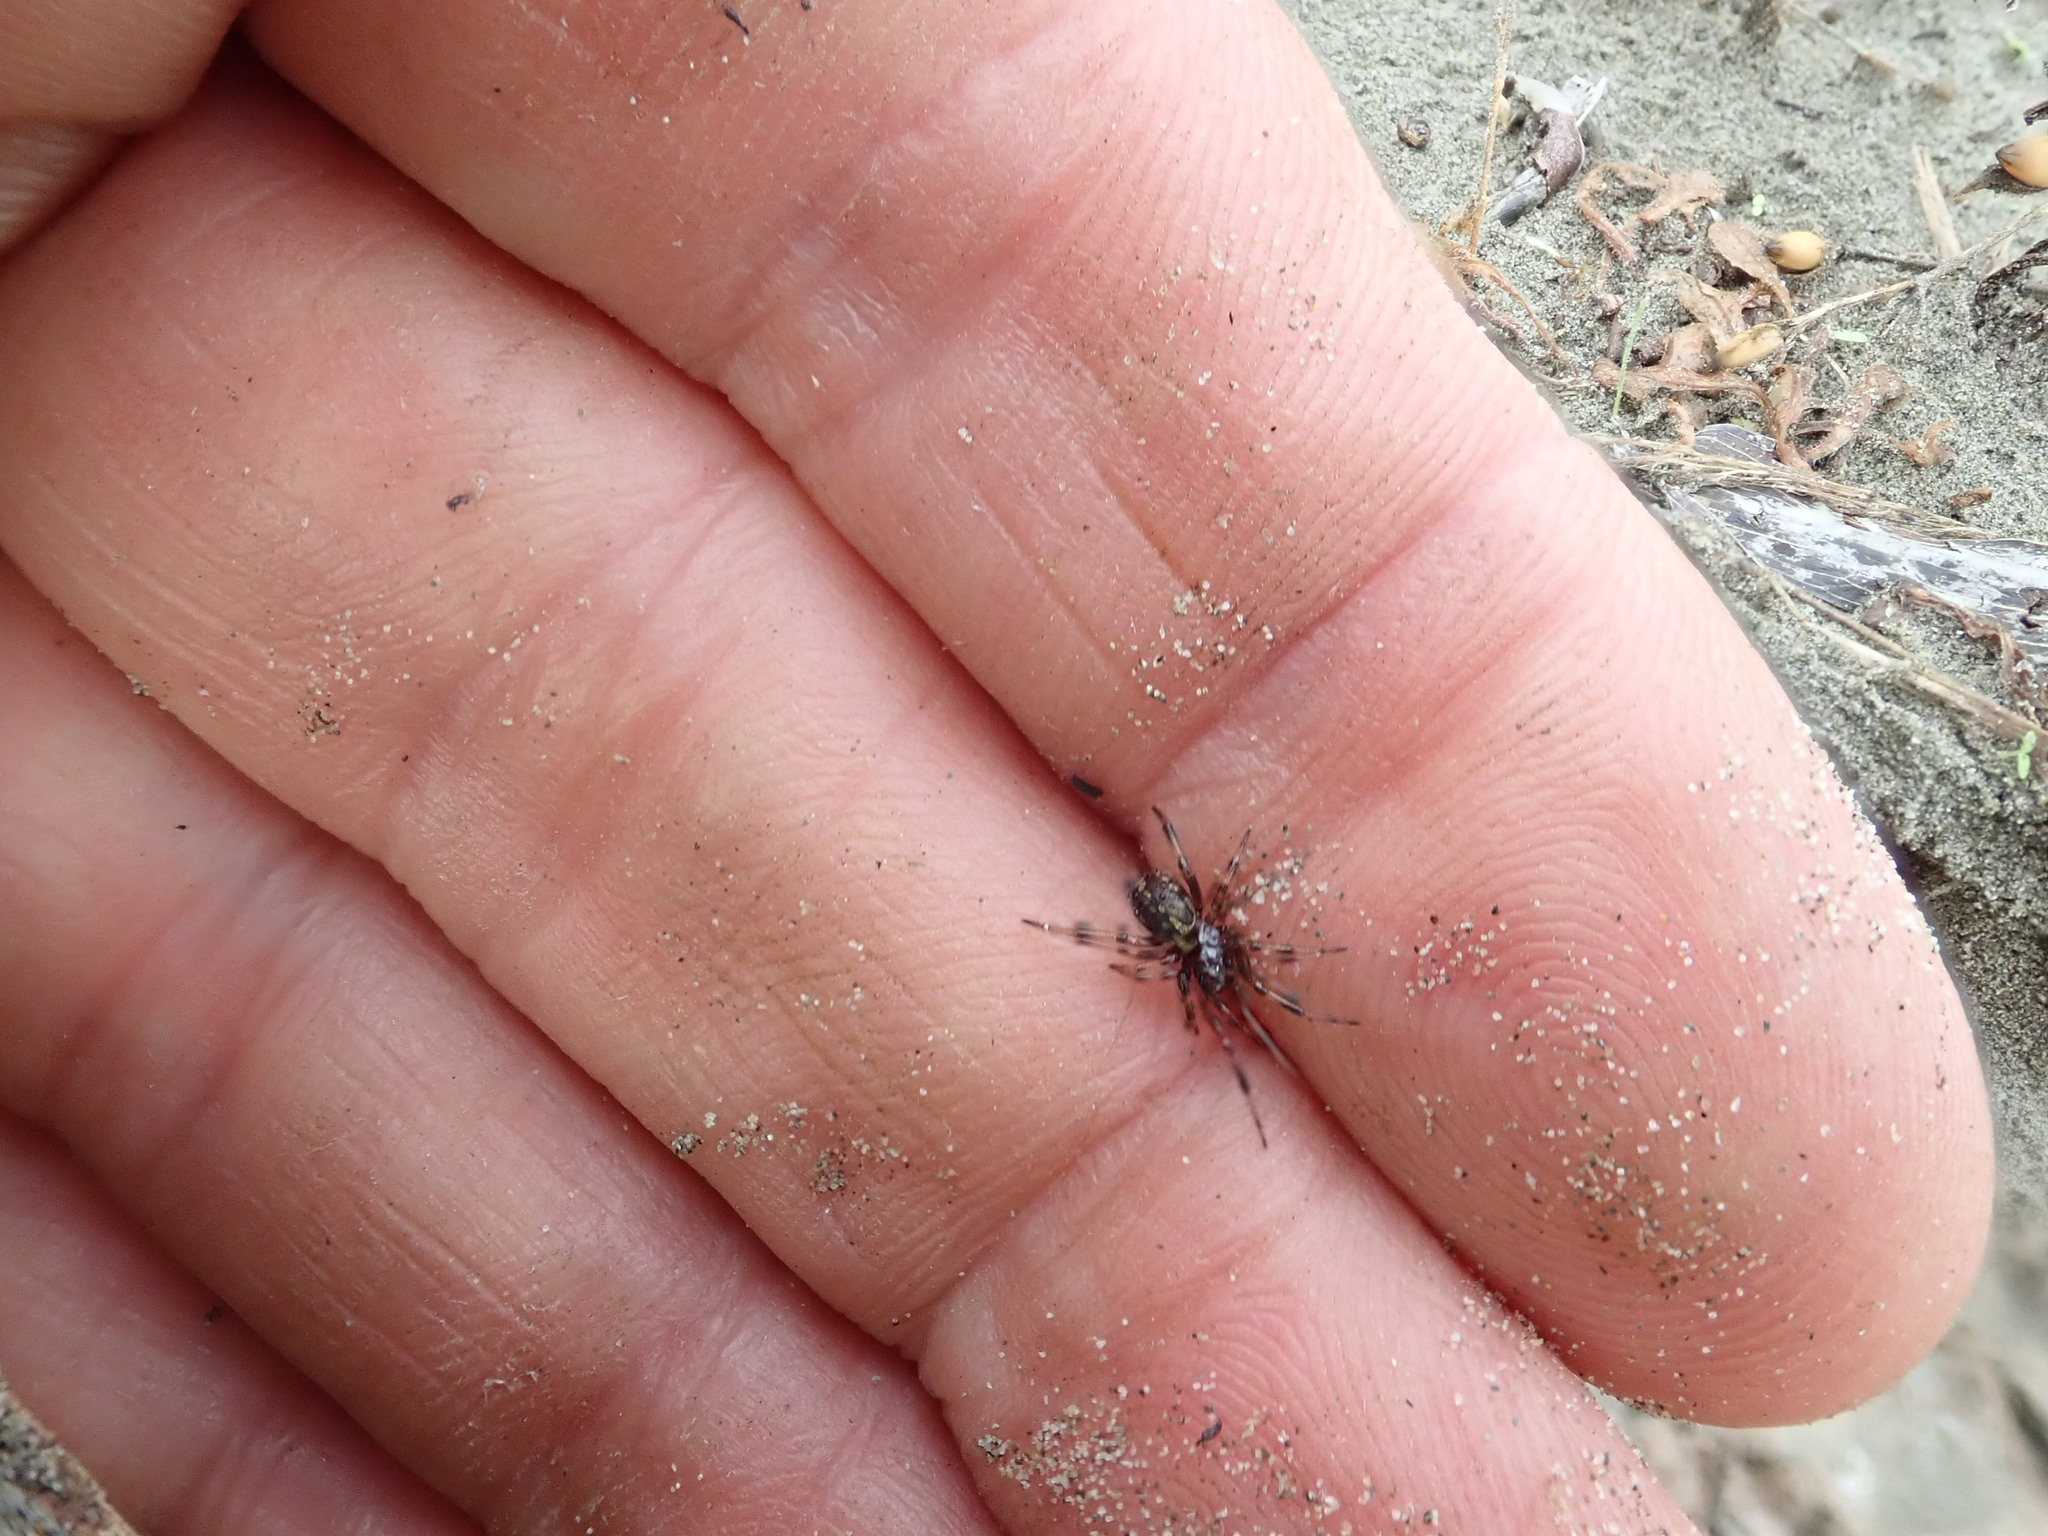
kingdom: Animalia
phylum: Arthropoda
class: Arachnida
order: Araneae
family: Theridiidae
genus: Steatoda
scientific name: Steatoda truncata
